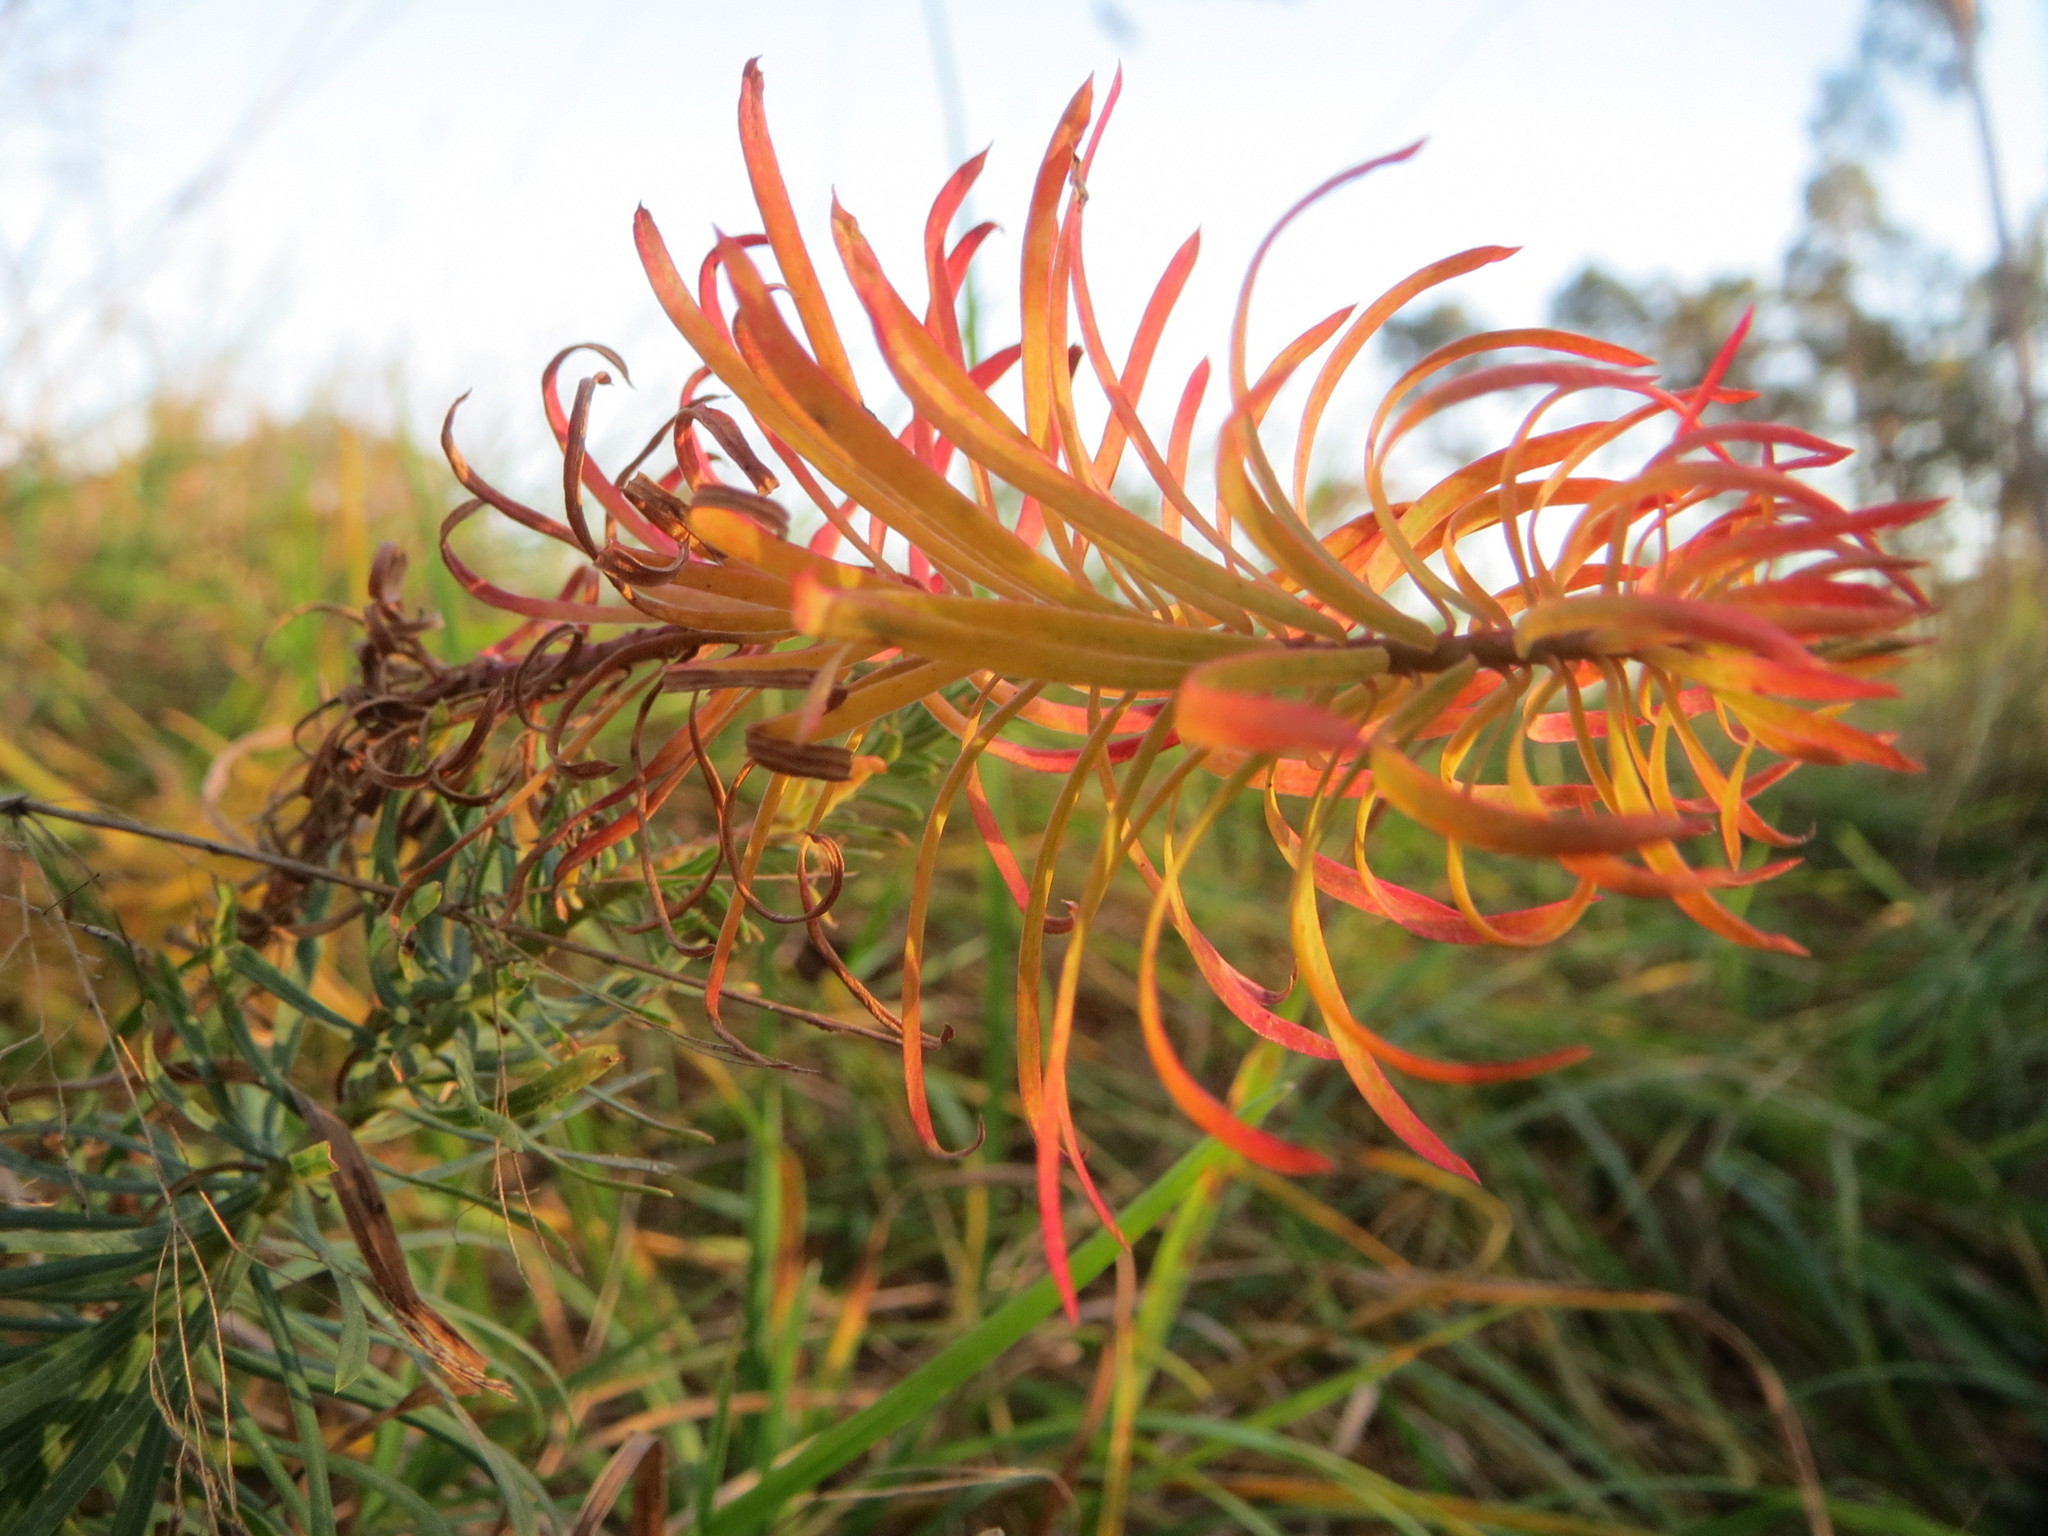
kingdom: Plantae
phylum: Tracheophyta
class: Magnoliopsida
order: Malpighiales
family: Euphorbiaceae
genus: Euphorbia
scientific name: Euphorbia cyparissias
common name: Cypress spurge
